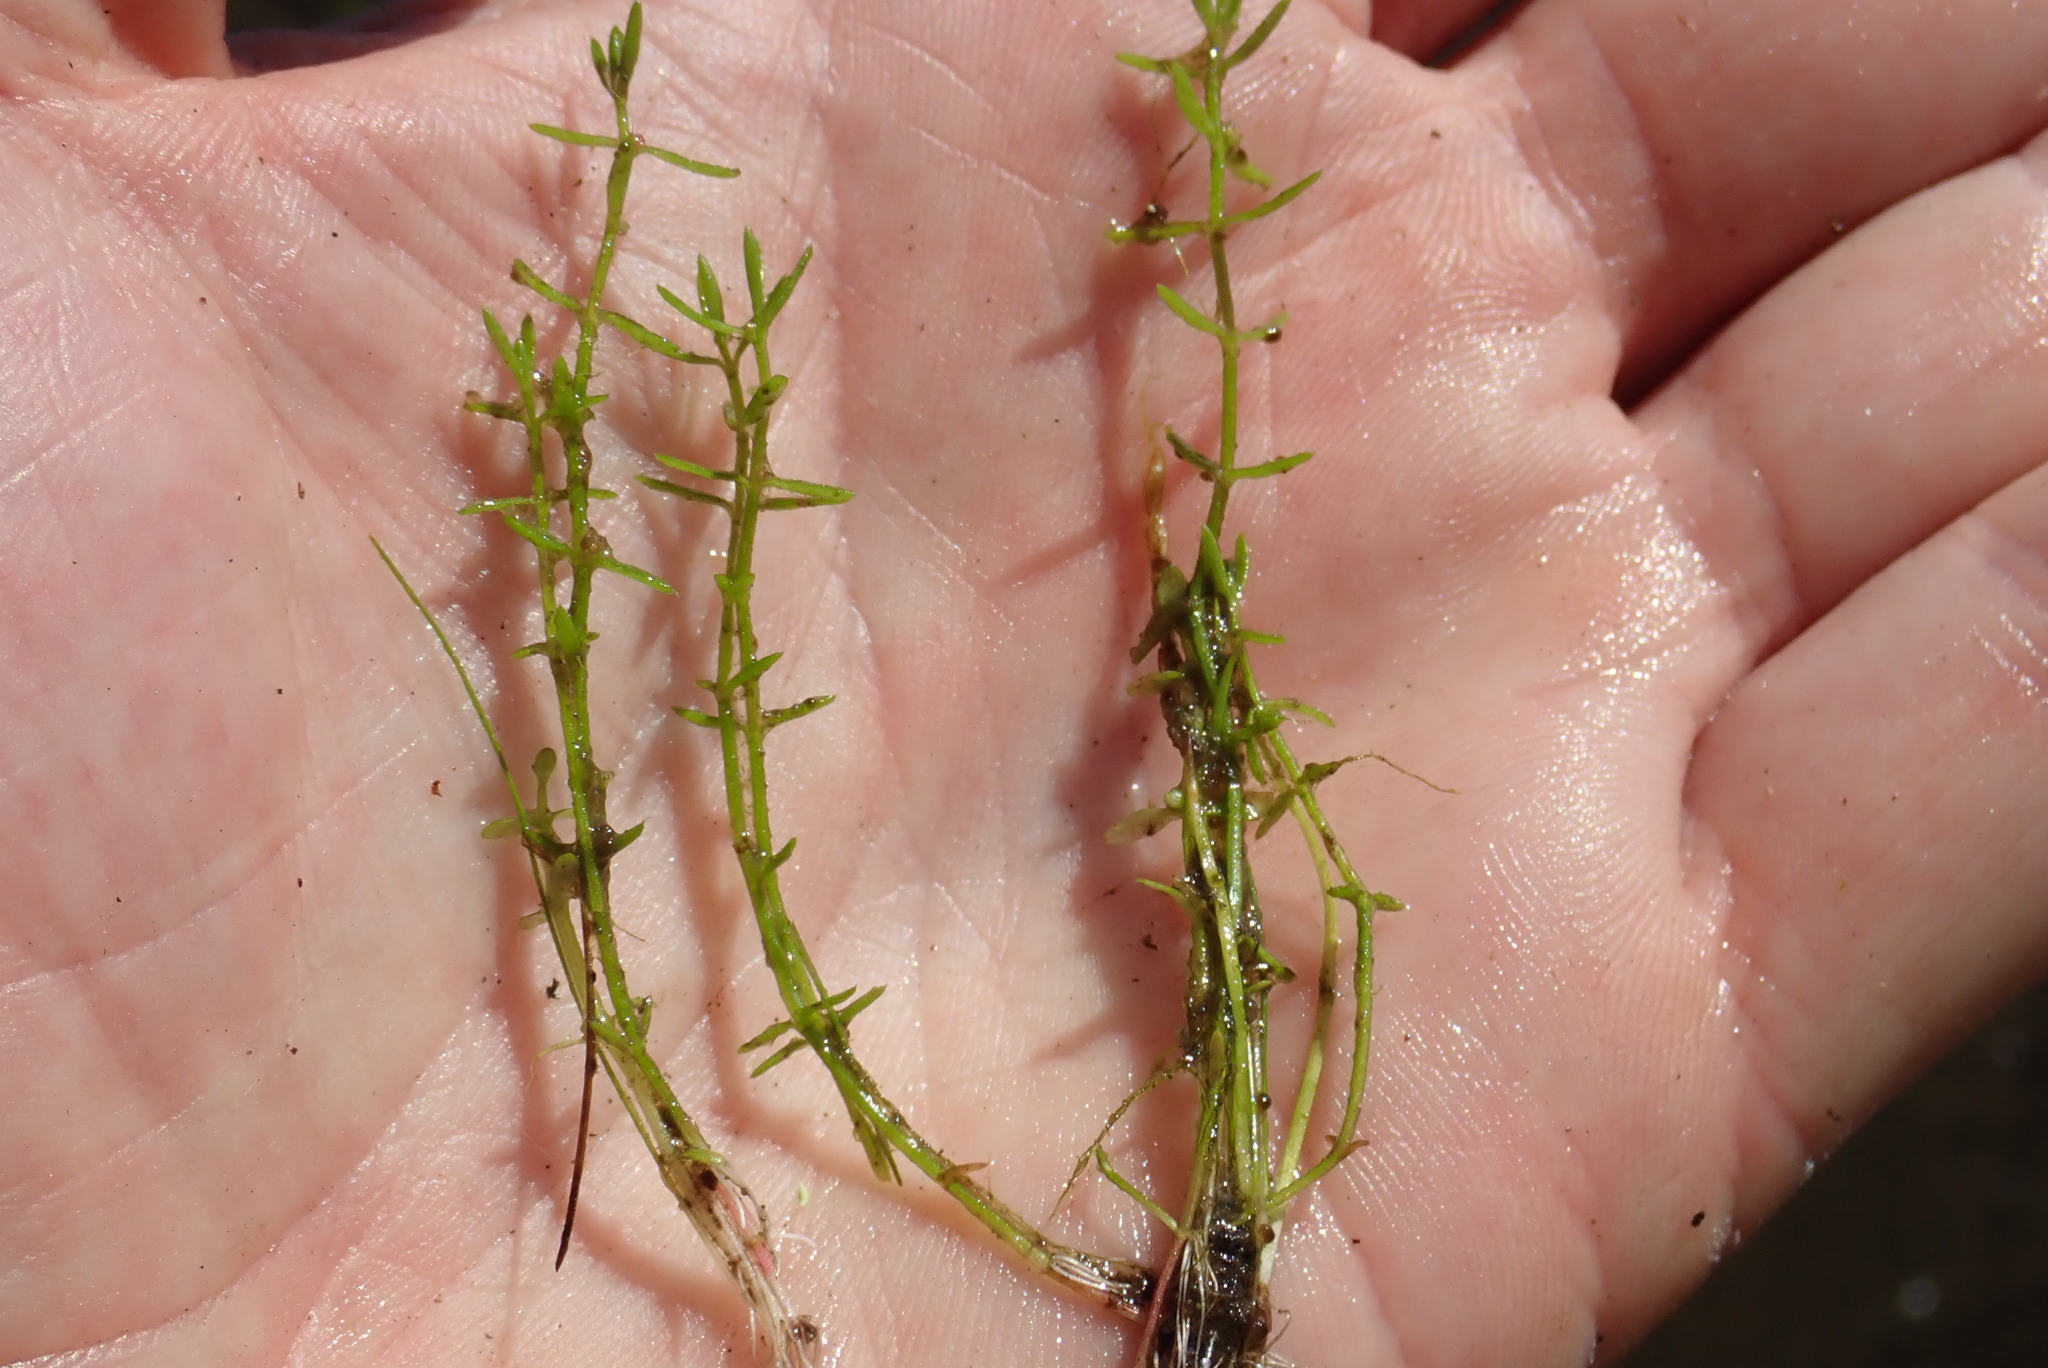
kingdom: Plantae
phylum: Tracheophyta
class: Magnoliopsida
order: Saxifragales
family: Crassulaceae
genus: Crassula
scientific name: Crassula aquatica
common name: Pigmyweed
